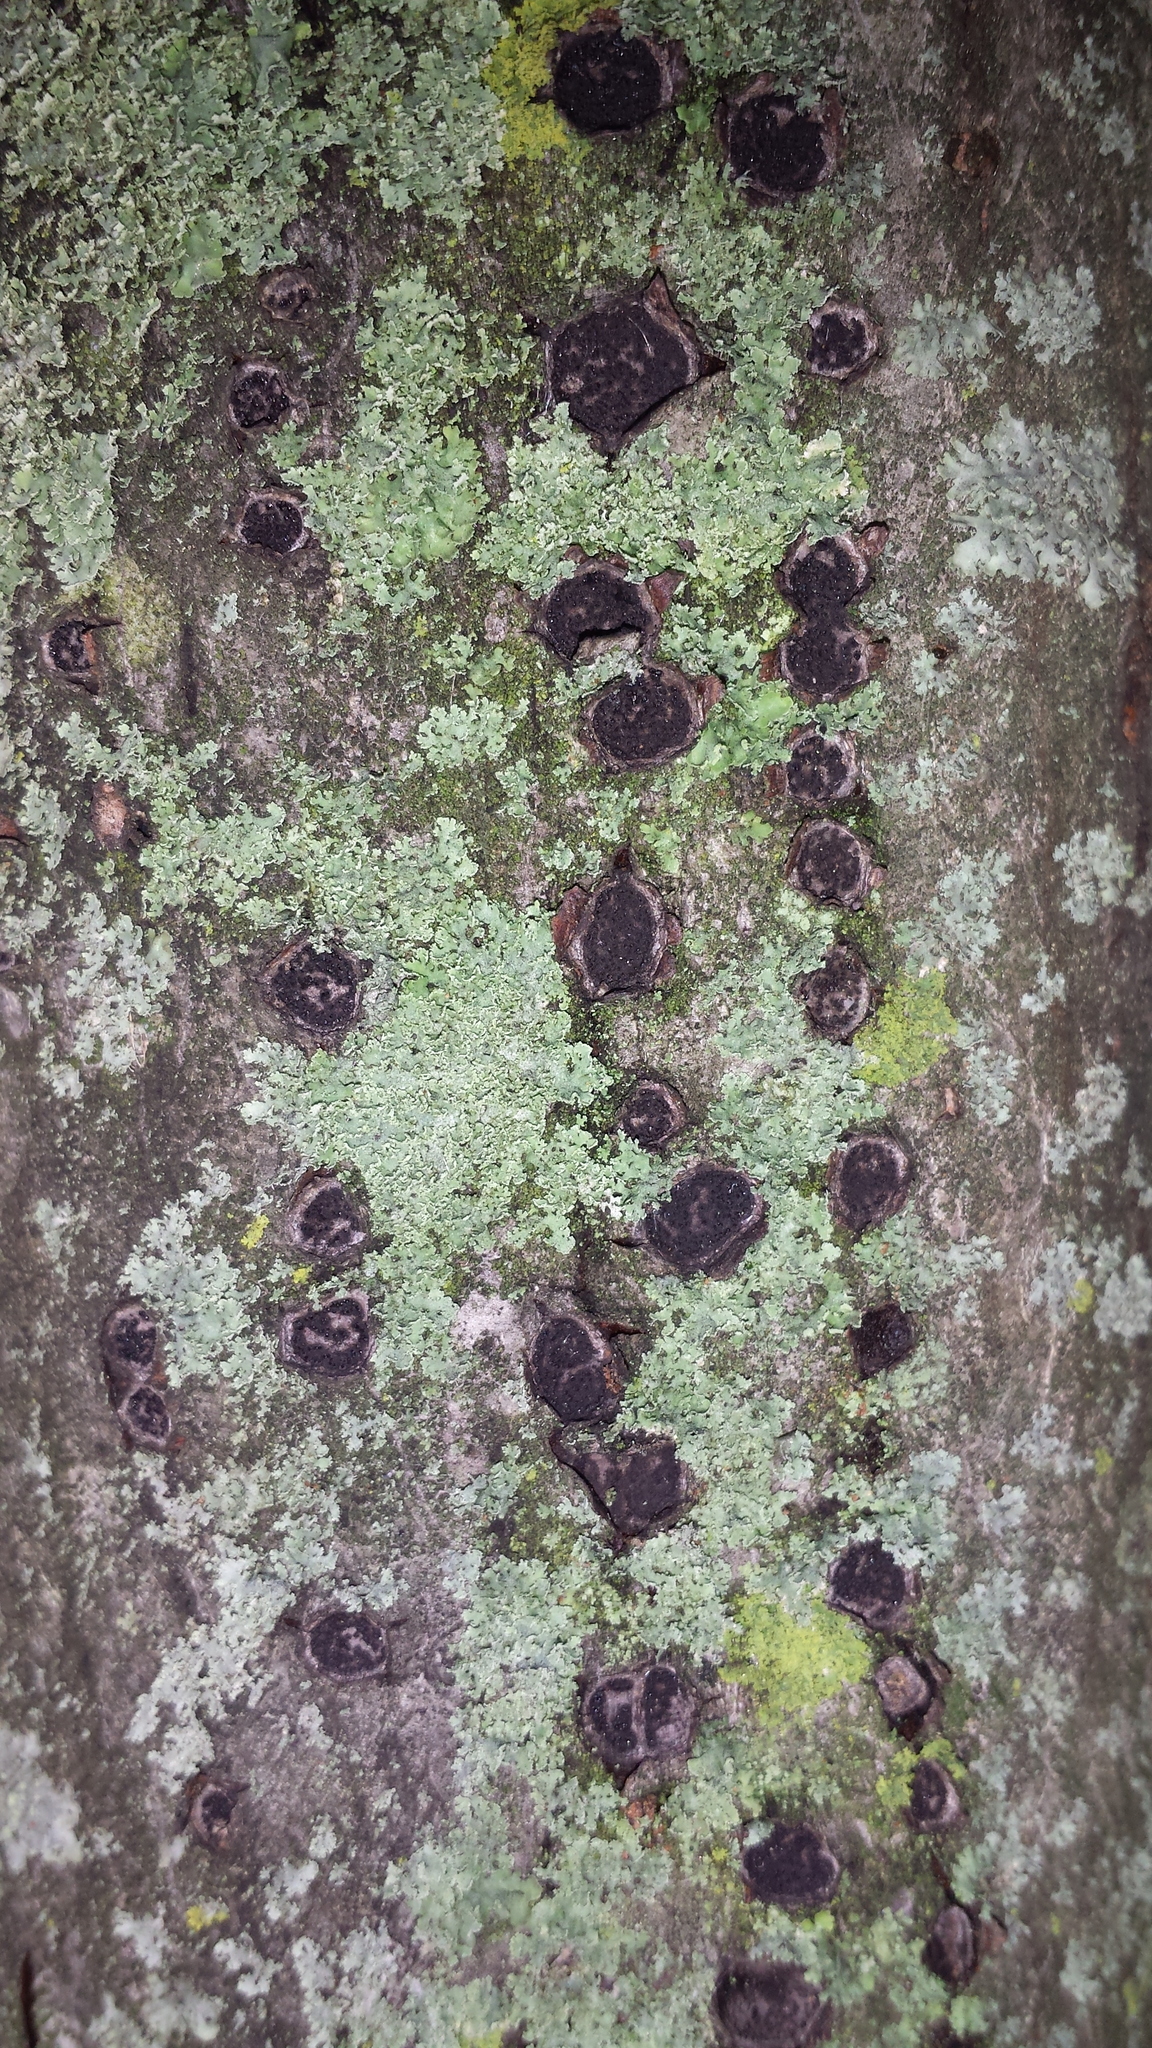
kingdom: Fungi
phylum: Ascomycota
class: Sordariomycetes
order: Xylariales
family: Graphostromataceae
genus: Biscogniauxia
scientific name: Biscogniauxia marginata
